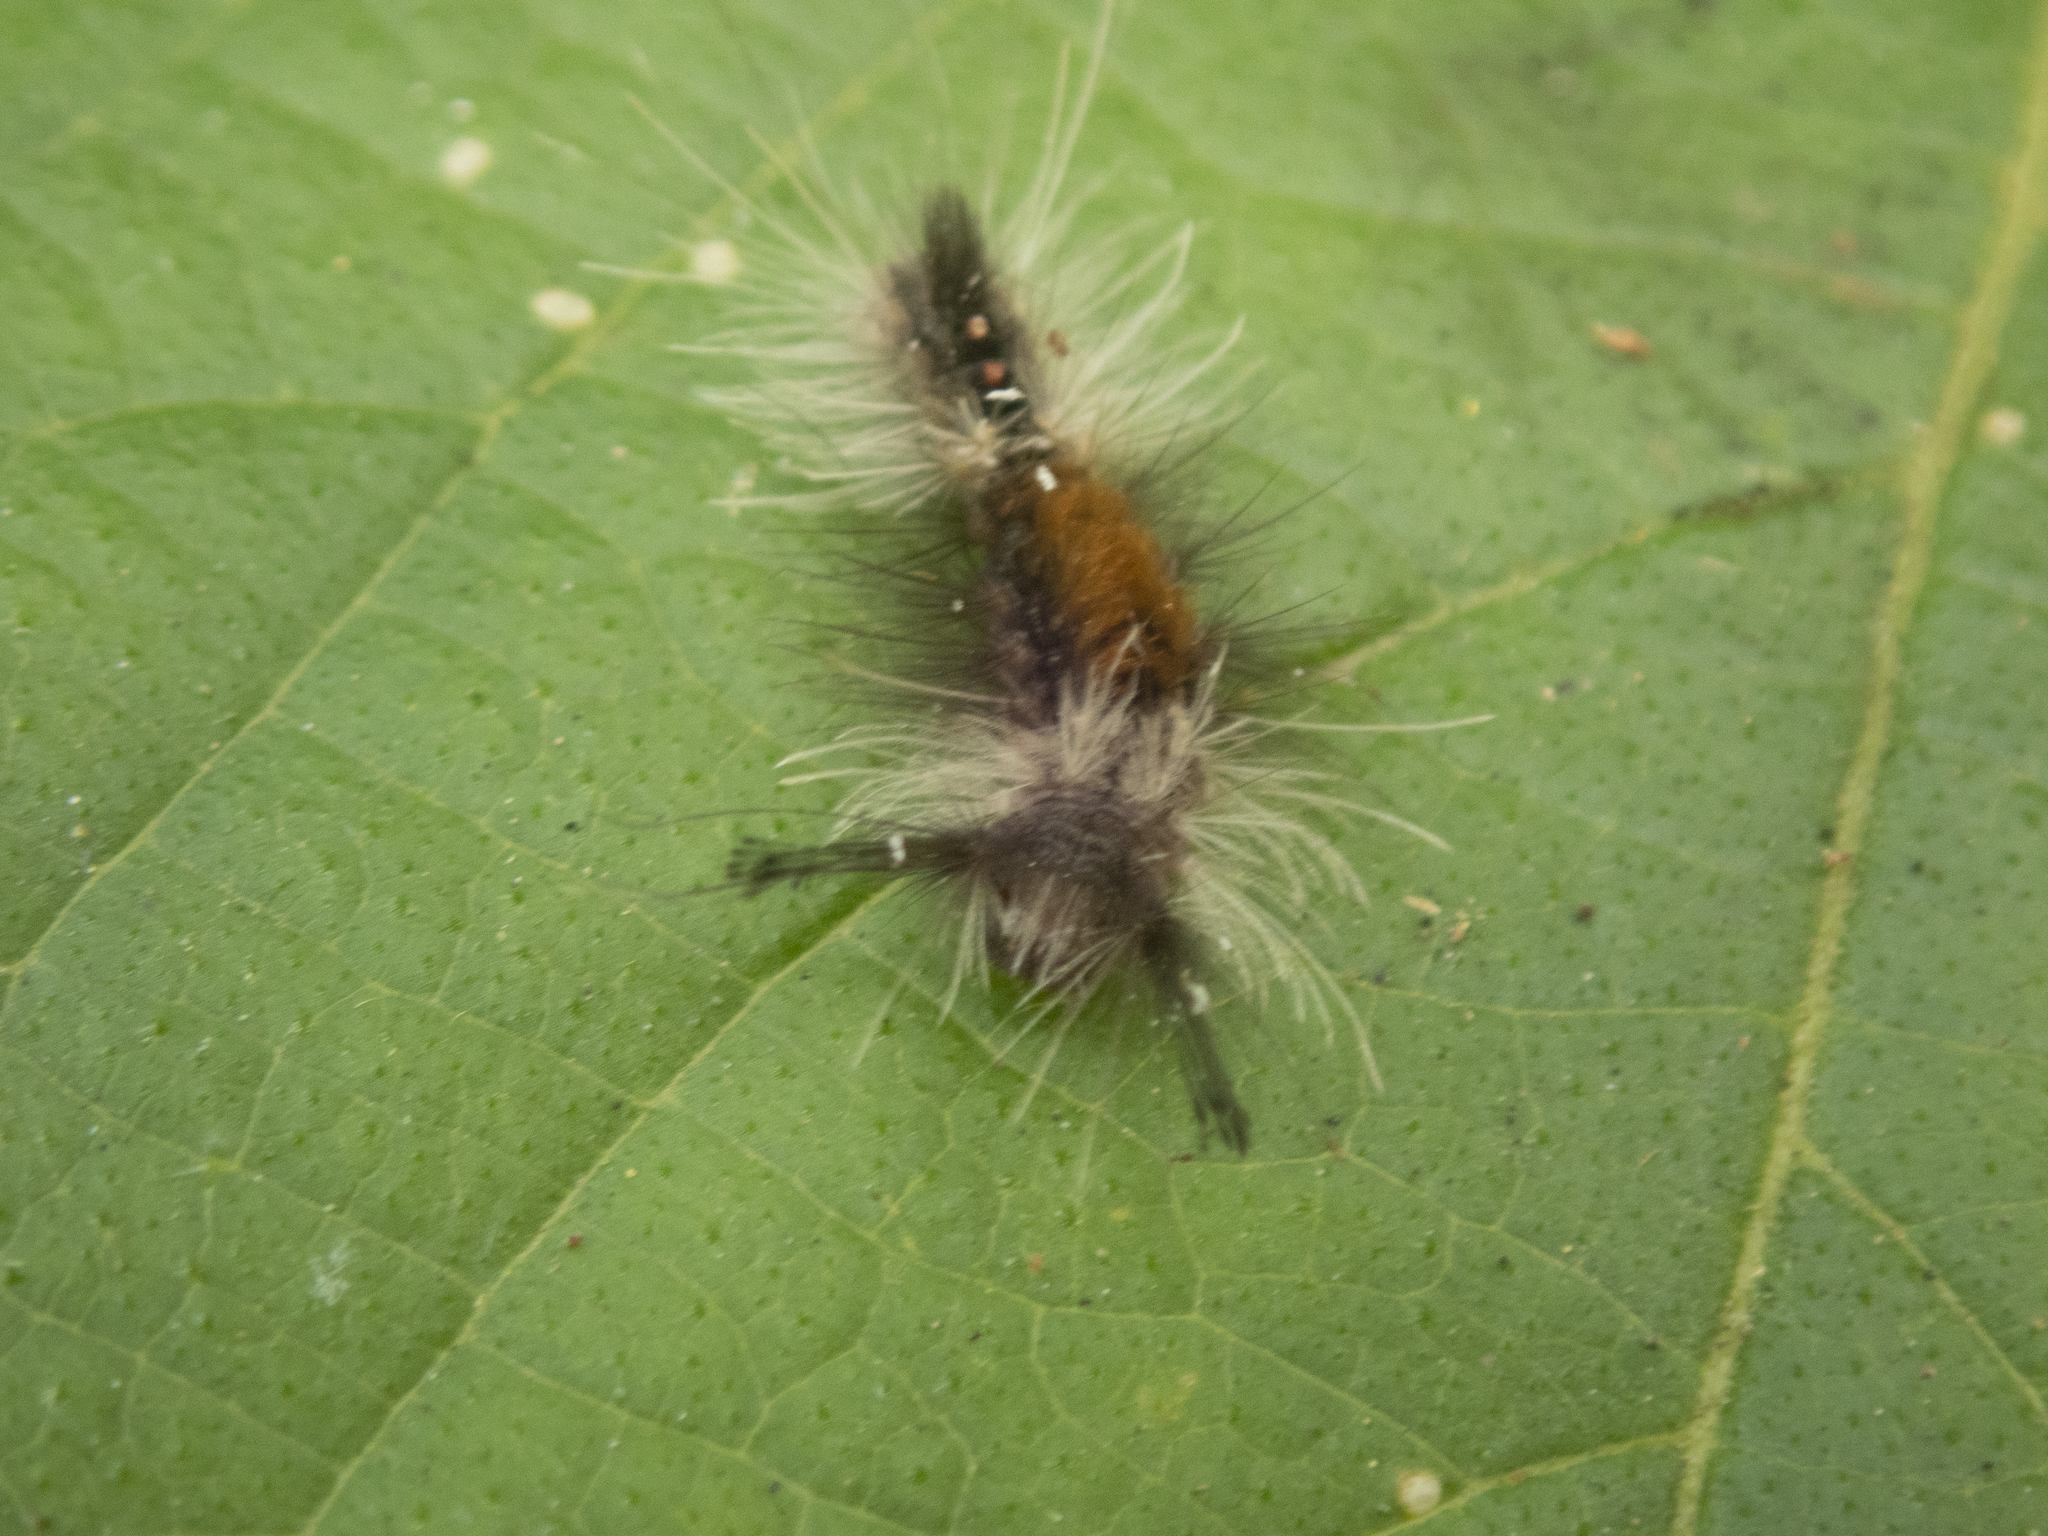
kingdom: Animalia
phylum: Arthropoda
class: Insecta
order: Lepidoptera
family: Erebidae
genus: Dasychira
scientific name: Dasychira chekiangensis
